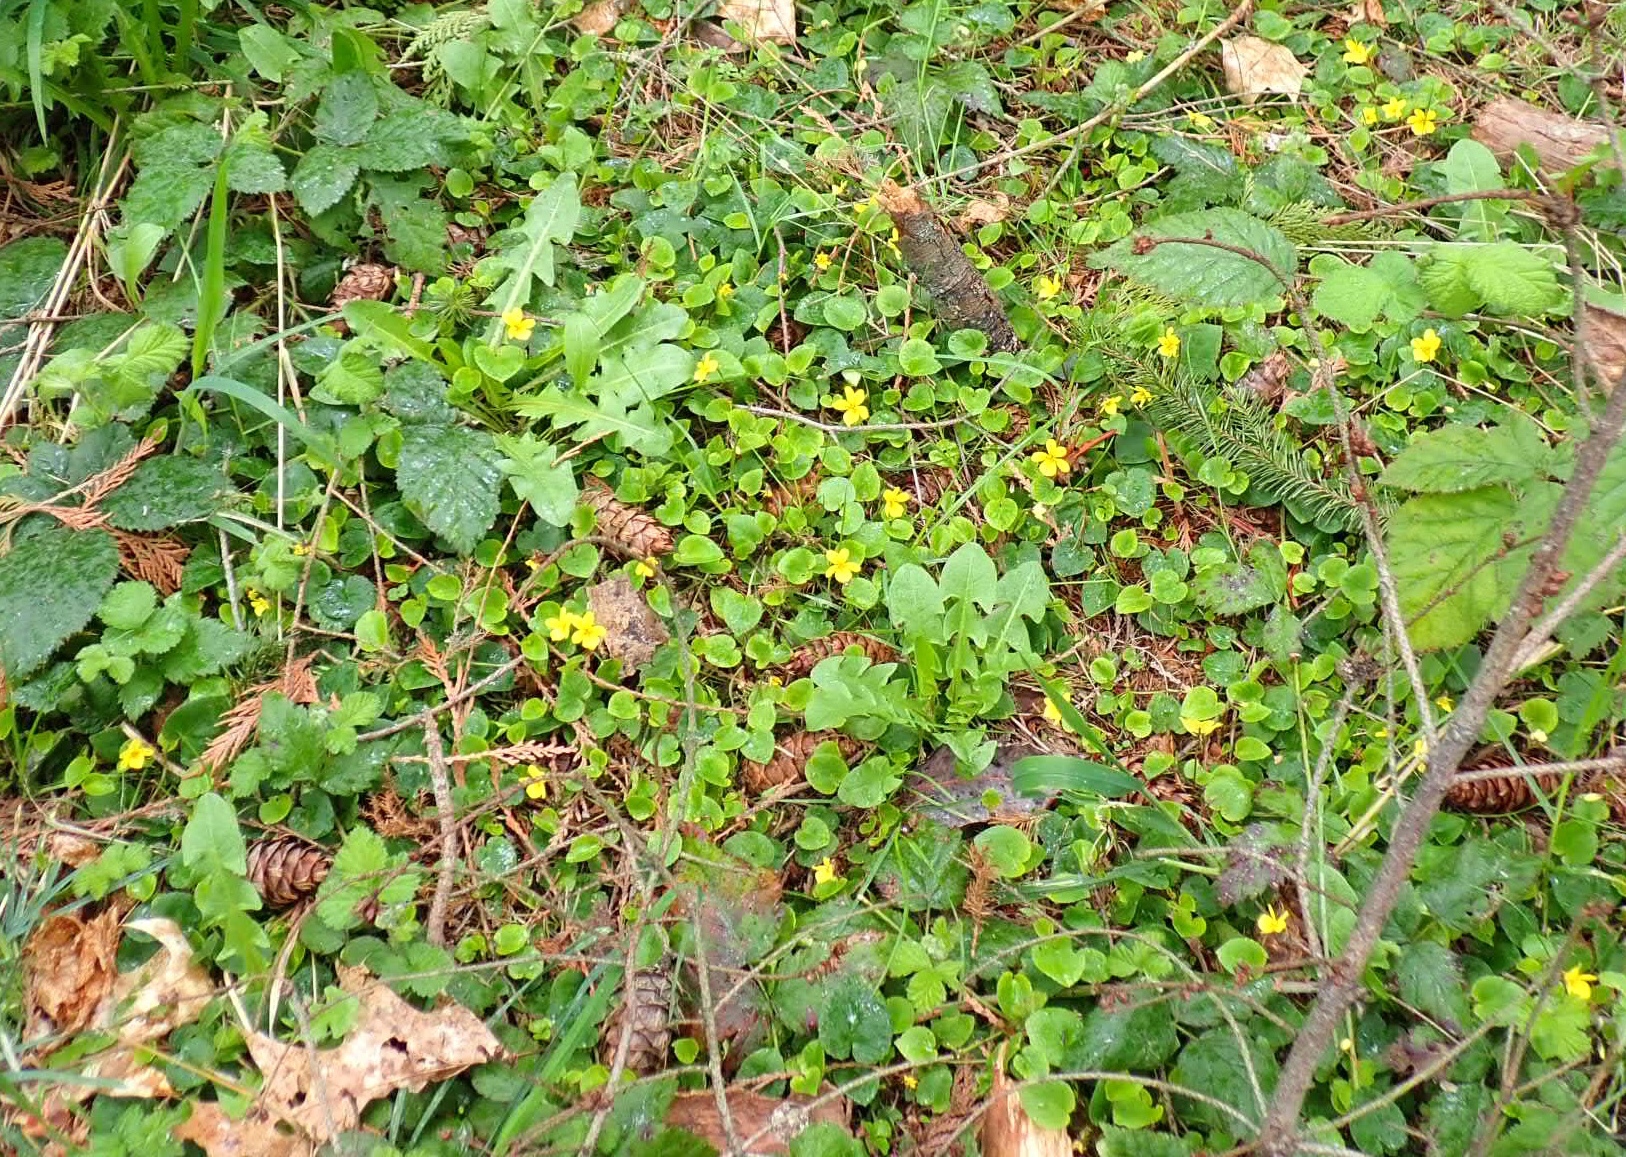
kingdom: Plantae
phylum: Tracheophyta
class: Magnoliopsida
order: Malpighiales
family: Violaceae
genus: Viola
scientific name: Viola sempervirens
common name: Evergreen violet
